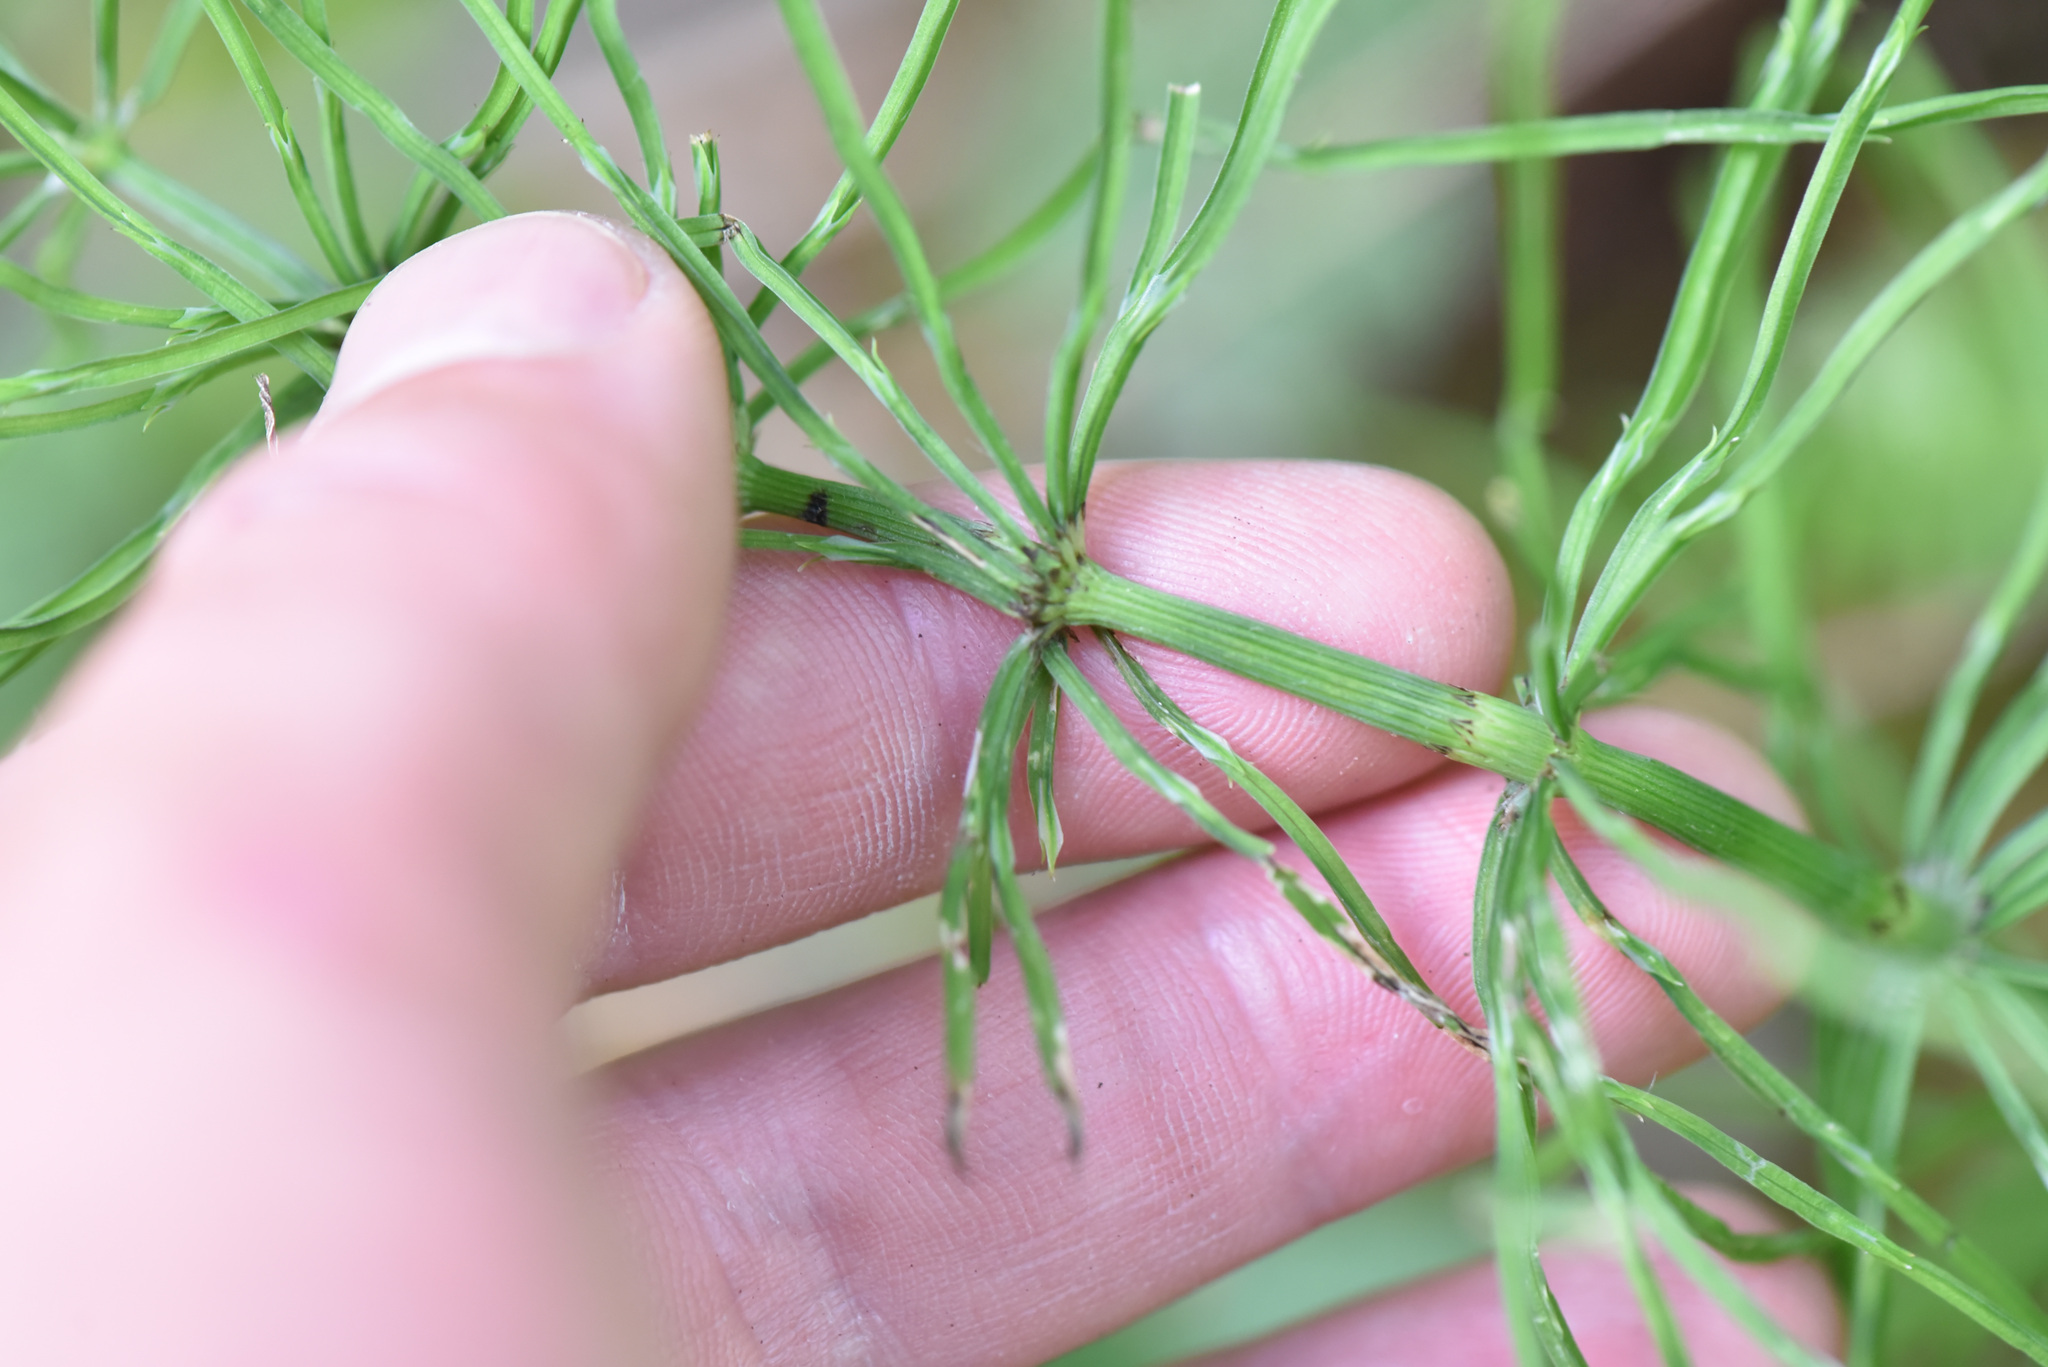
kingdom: Plantae
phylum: Tracheophyta
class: Polypodiopsida
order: Equisetales
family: Equisetaceae
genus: Equisetum
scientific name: Equisetum arvense
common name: Field horsetail
